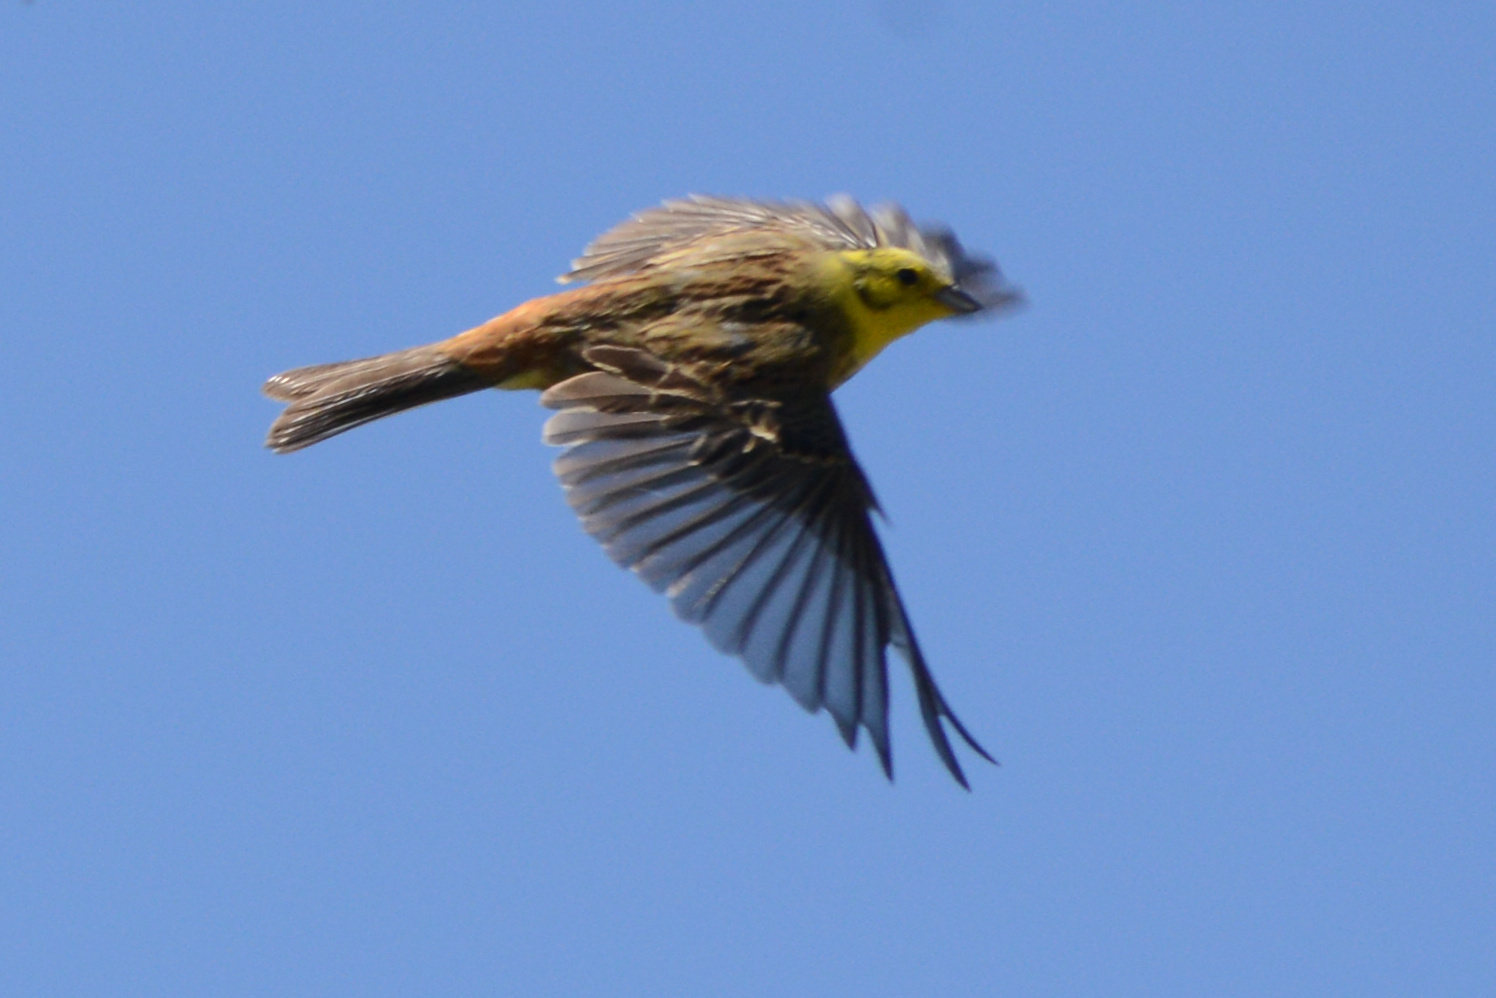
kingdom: Animalia
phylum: Chordata
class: Aves
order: Passeriformes
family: Emberizidae
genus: Emberiza
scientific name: Emberiza citrinella
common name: Yellowhammer
